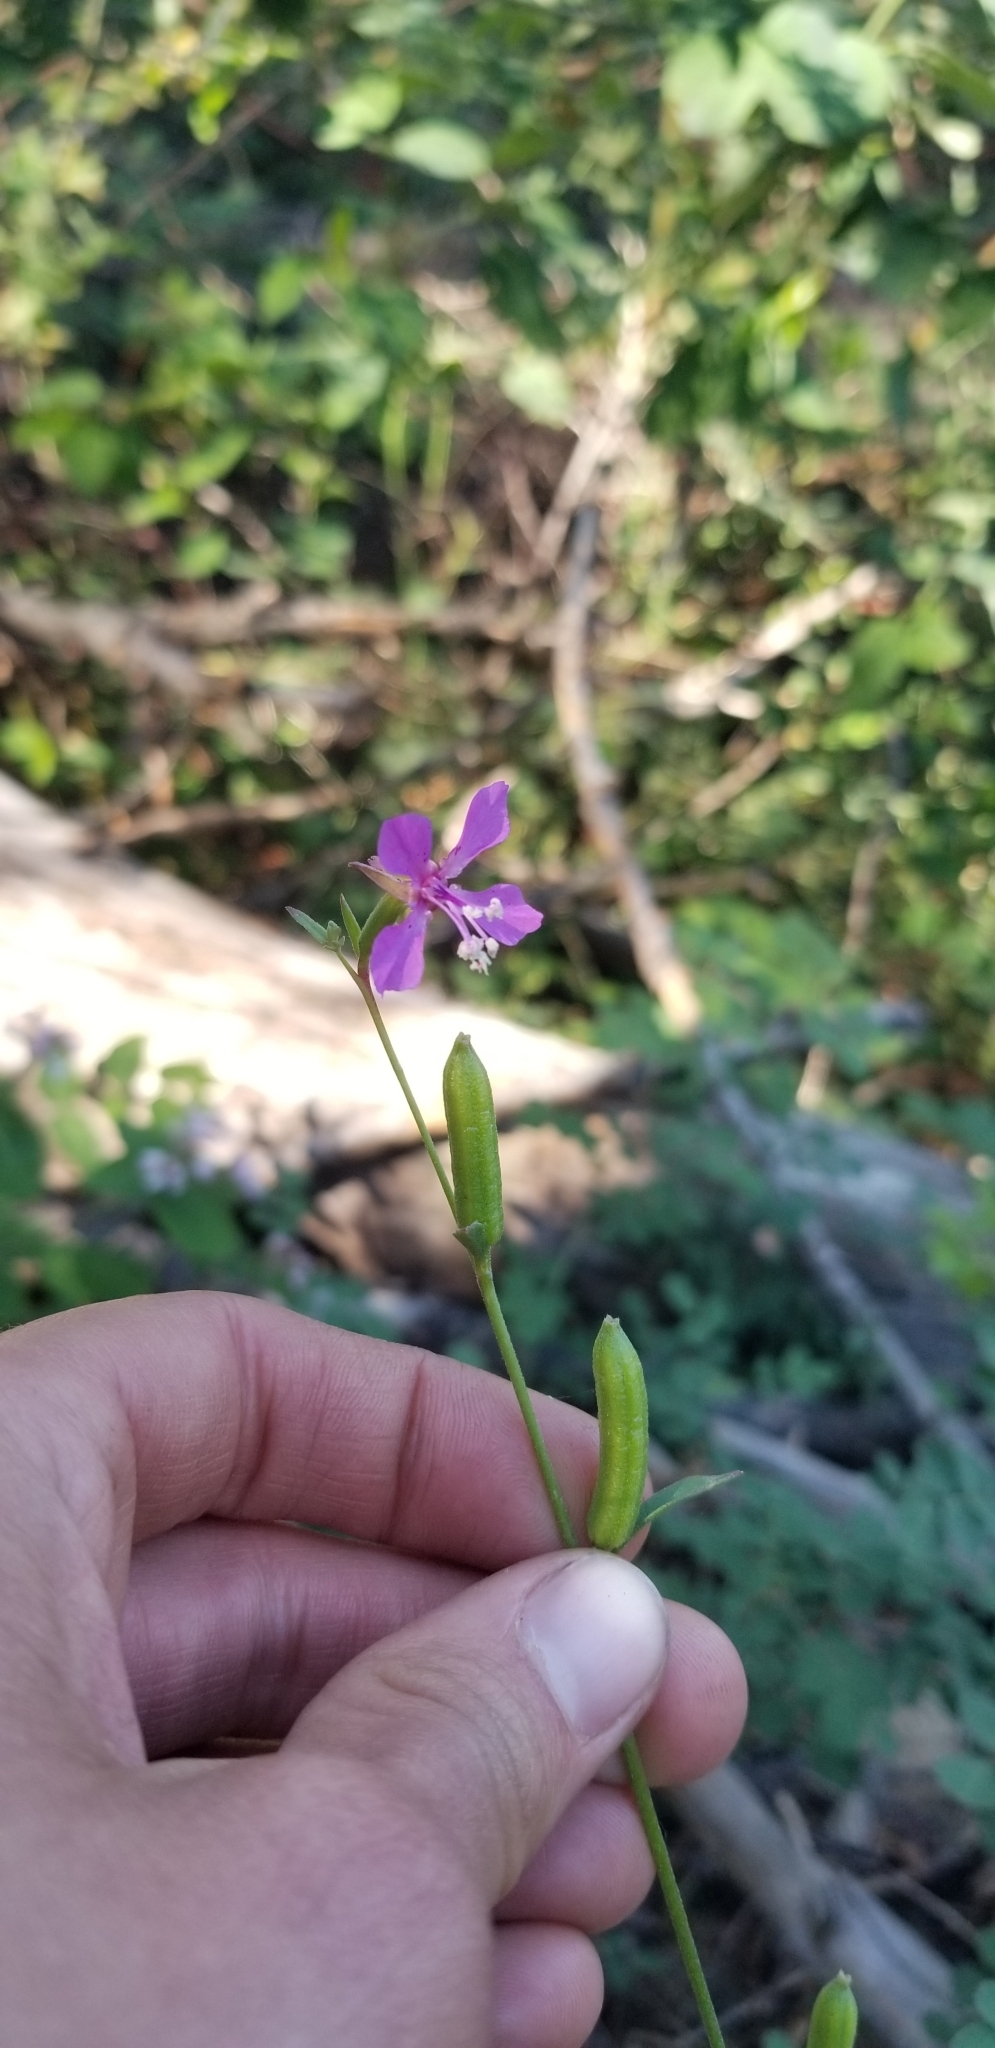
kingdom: Plantae
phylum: Tracheophyta
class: Magnoliopsida
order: Myrtales
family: Onagraceae
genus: Clarkia
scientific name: Clarkia rhomboidea
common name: Broadleaf clarkia
